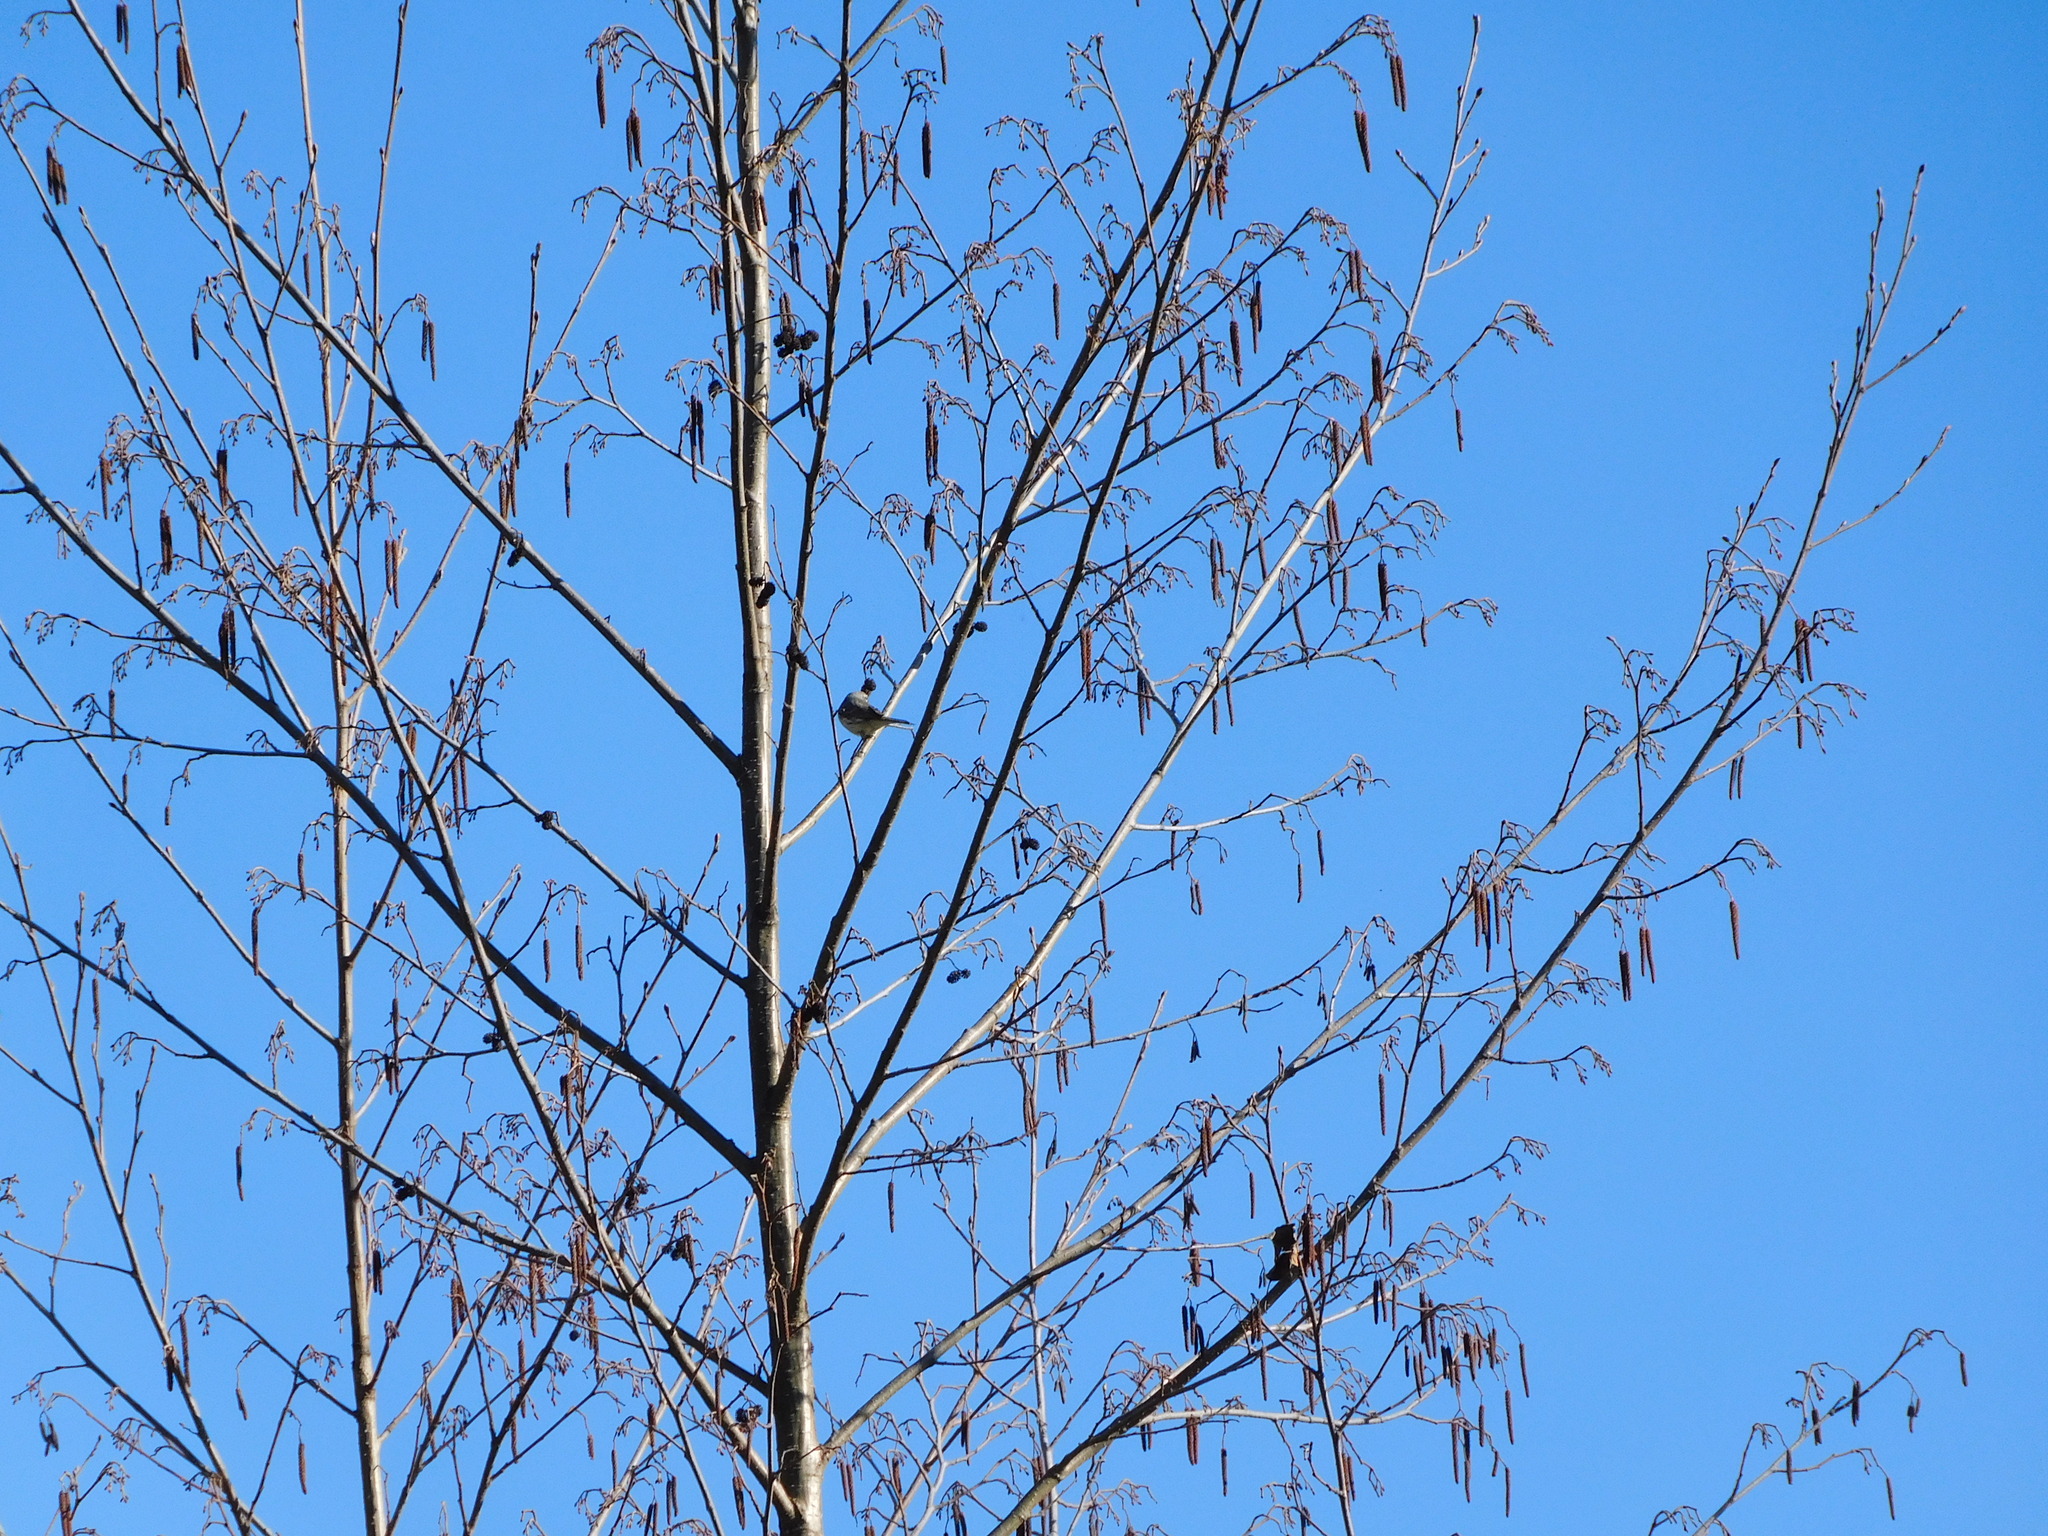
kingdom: Animalia
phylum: Chordata
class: Aves
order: Passeriformes
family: Parulidae
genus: Setophaga
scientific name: Setophaga coronata
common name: Myrtle warbler
